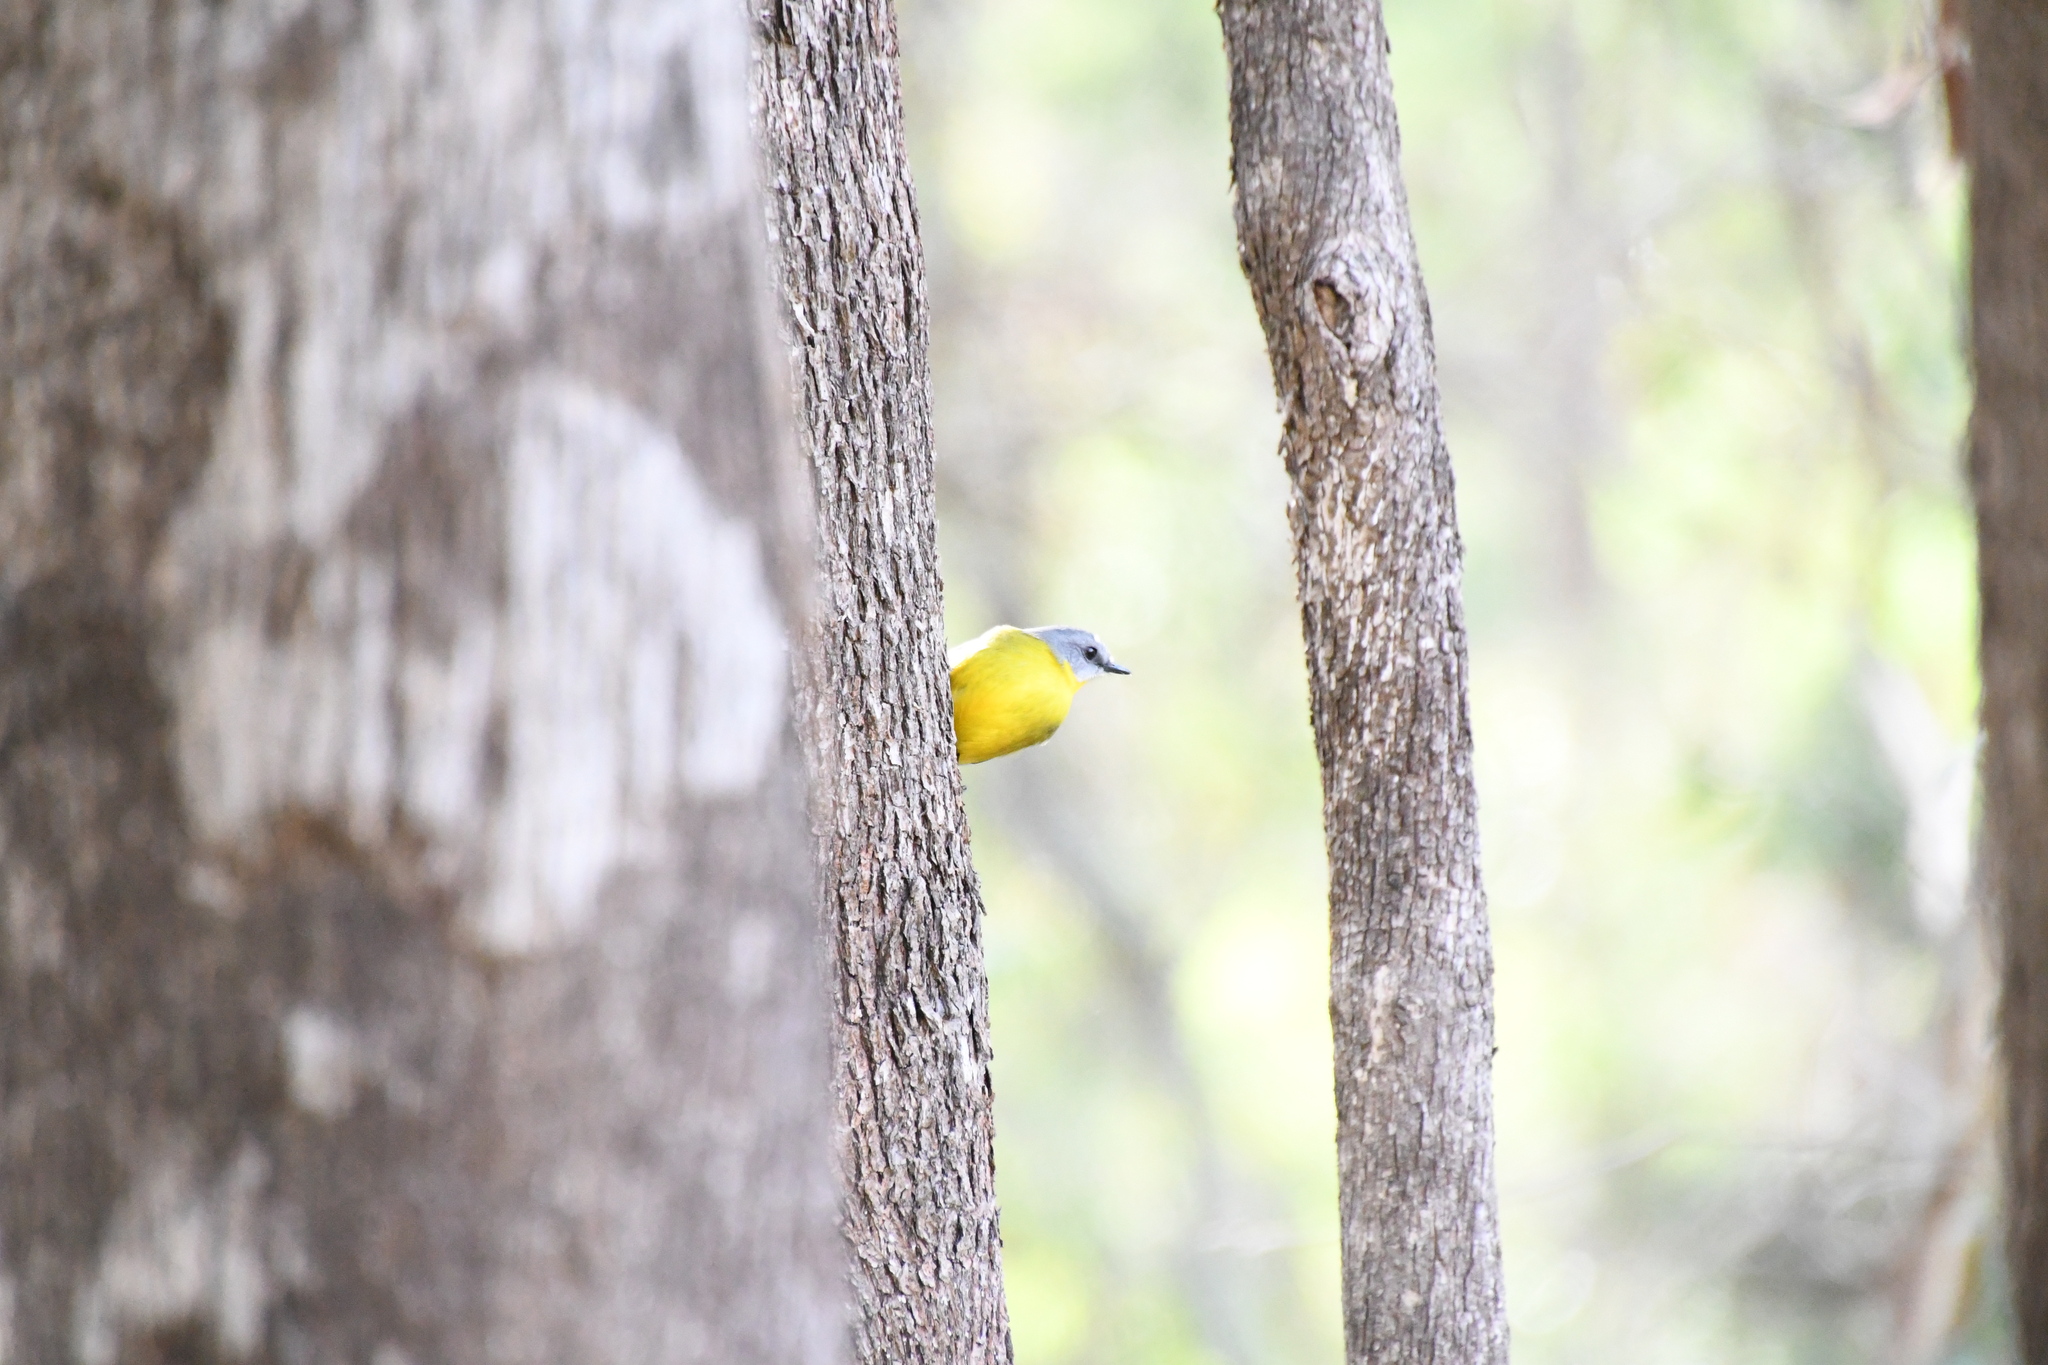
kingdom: Animalia
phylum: Chordata
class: Aves
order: Passeriformes
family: Petroicidae
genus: Eopsaltria
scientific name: Eopsaltria australis
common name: Eastern yellow robin
